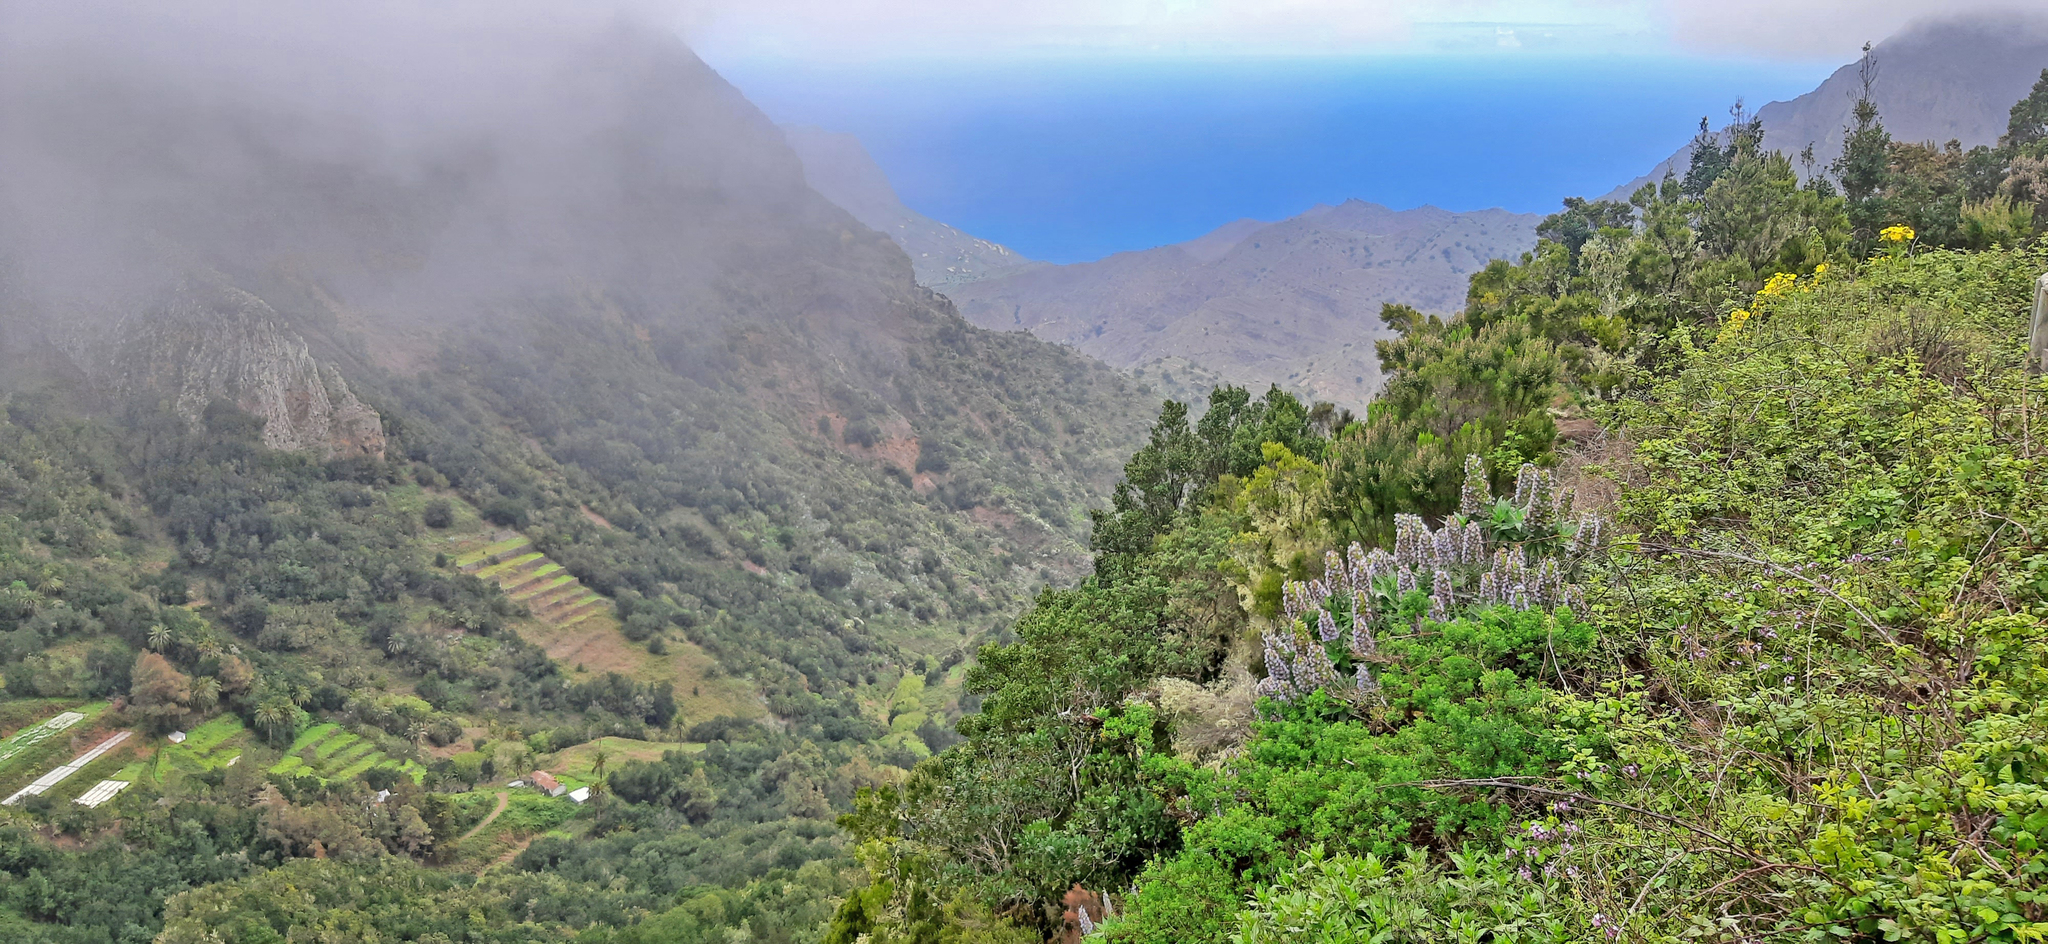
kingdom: Plantae
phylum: Tracheophyta
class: Magnoliopsida
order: Boraginales
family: Boraginaceae
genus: Echium
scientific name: Echium acanthocarpum
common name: Blue bugloss
